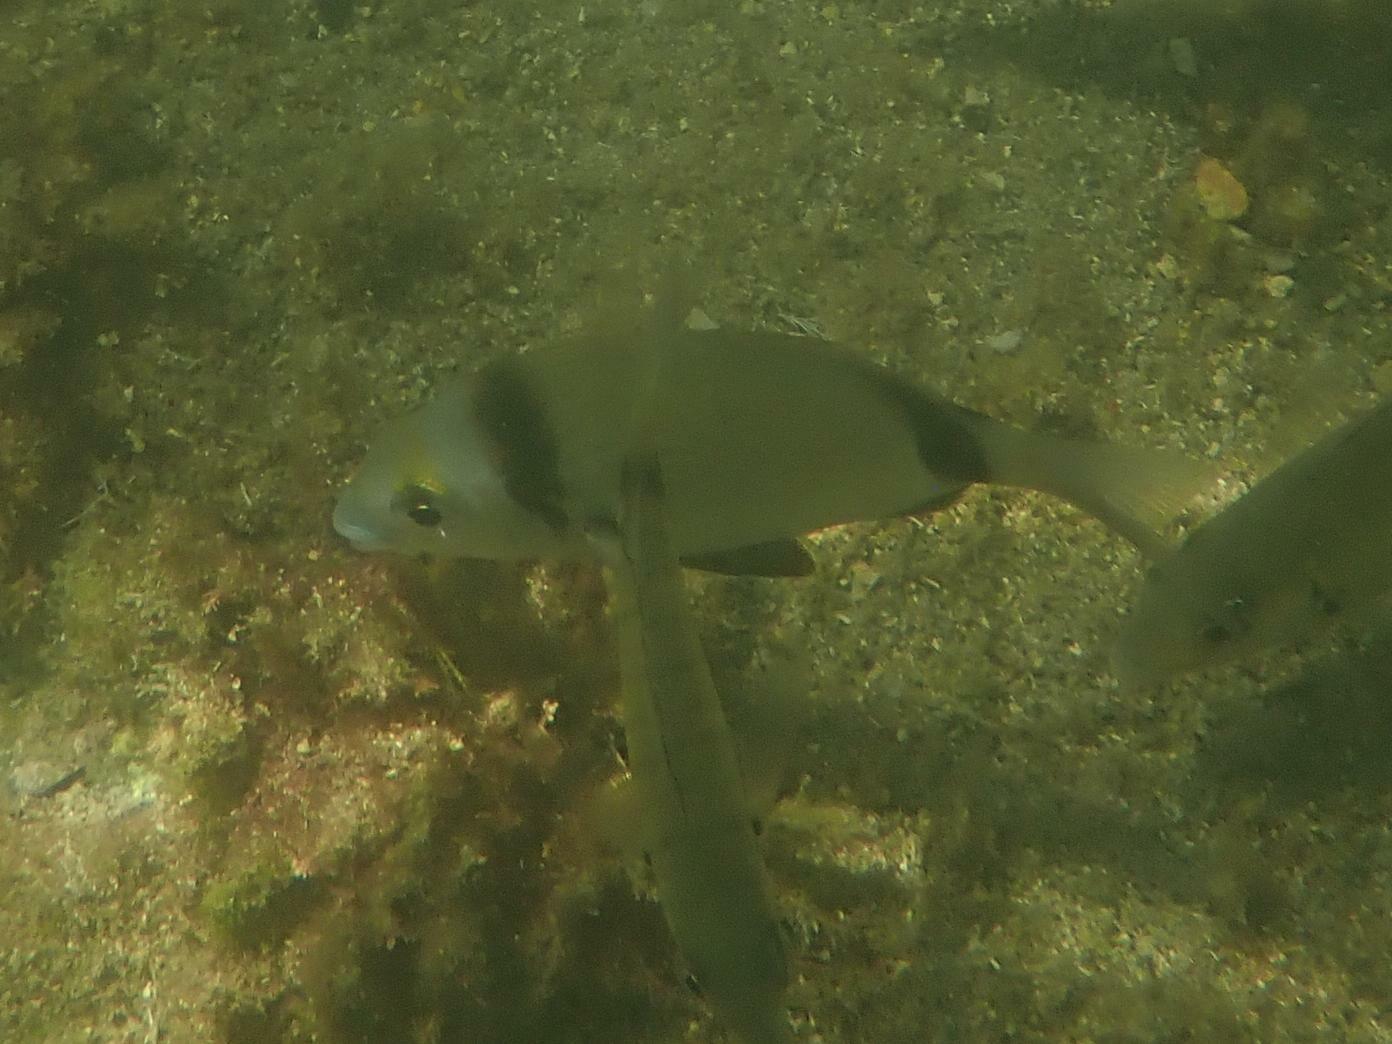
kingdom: Animalia
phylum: Chordata
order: Perciformes
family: Sparidae
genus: Diplodus
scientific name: Diplodus vulgaris
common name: Common two-banded seabream
